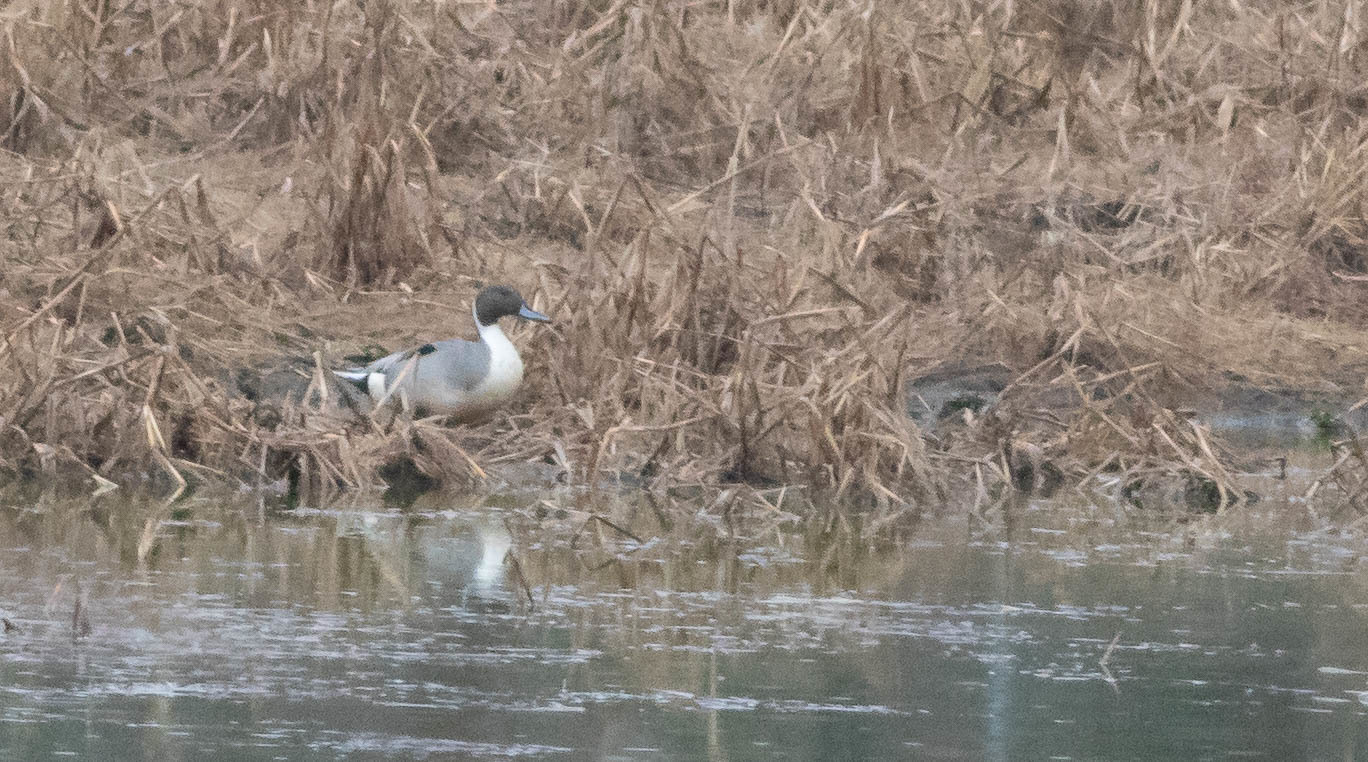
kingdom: Animalia
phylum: Chordata
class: Aves
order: Anseriformes
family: Anatidae
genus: Anas
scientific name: Anas acuta
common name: Northern pintail
